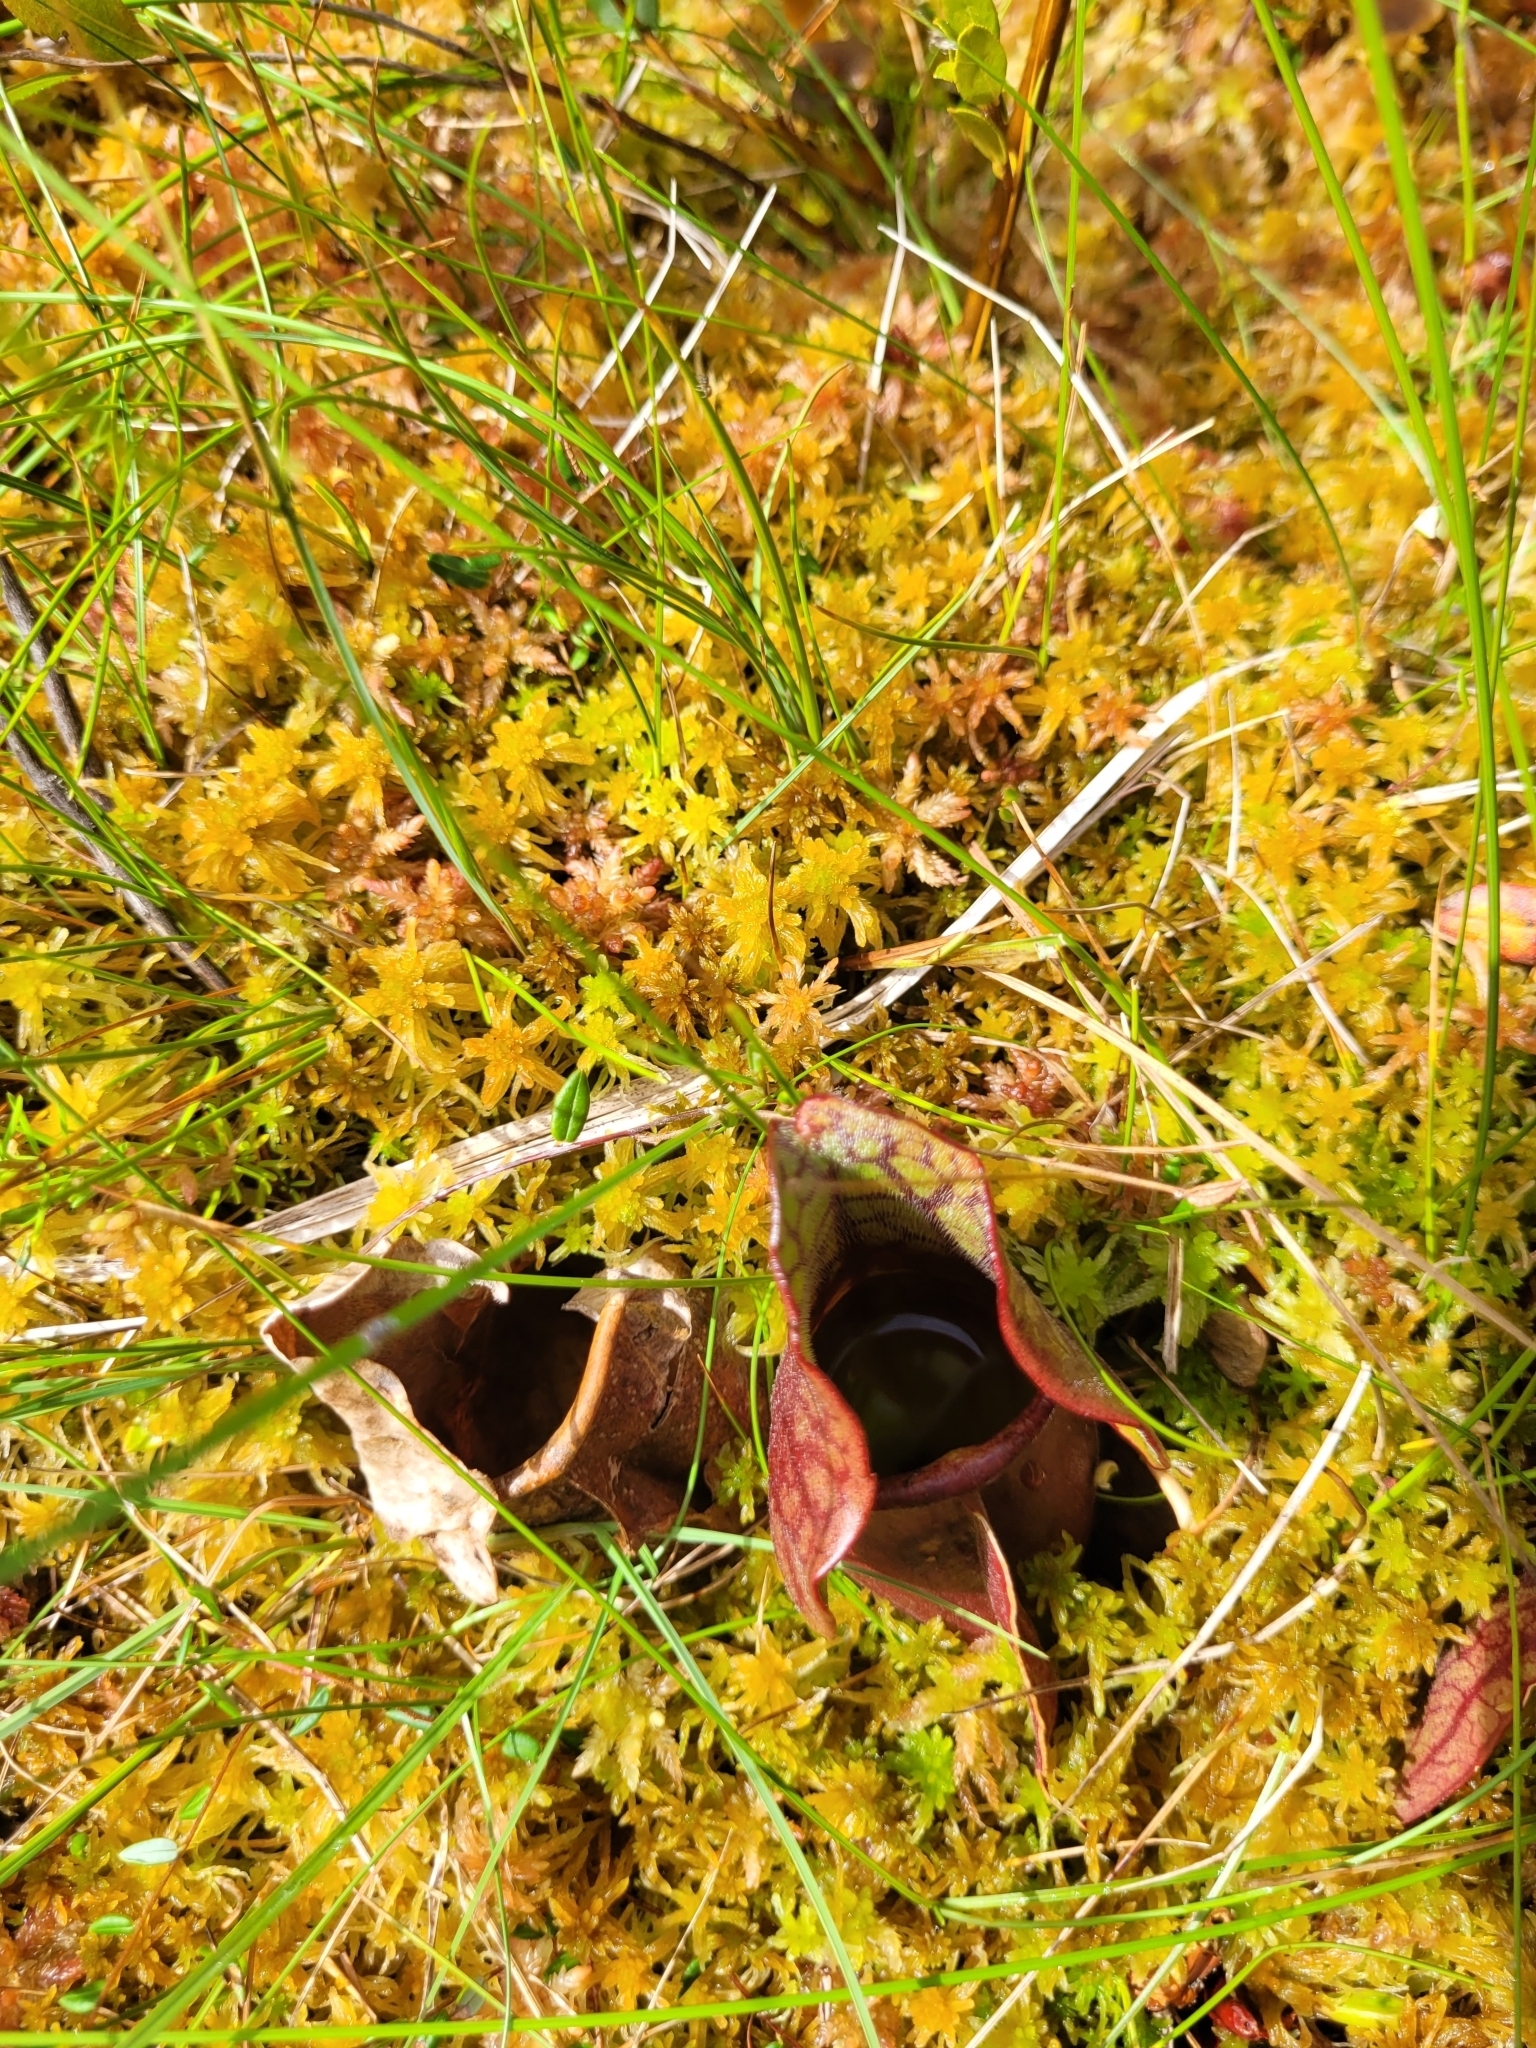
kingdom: Plantae
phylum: Tracheophyta
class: Magnoliopsida
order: Ericales
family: Sarraceniaceae
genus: Sarracenia
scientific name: Sarracenia purpurea
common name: Pitcherplant
